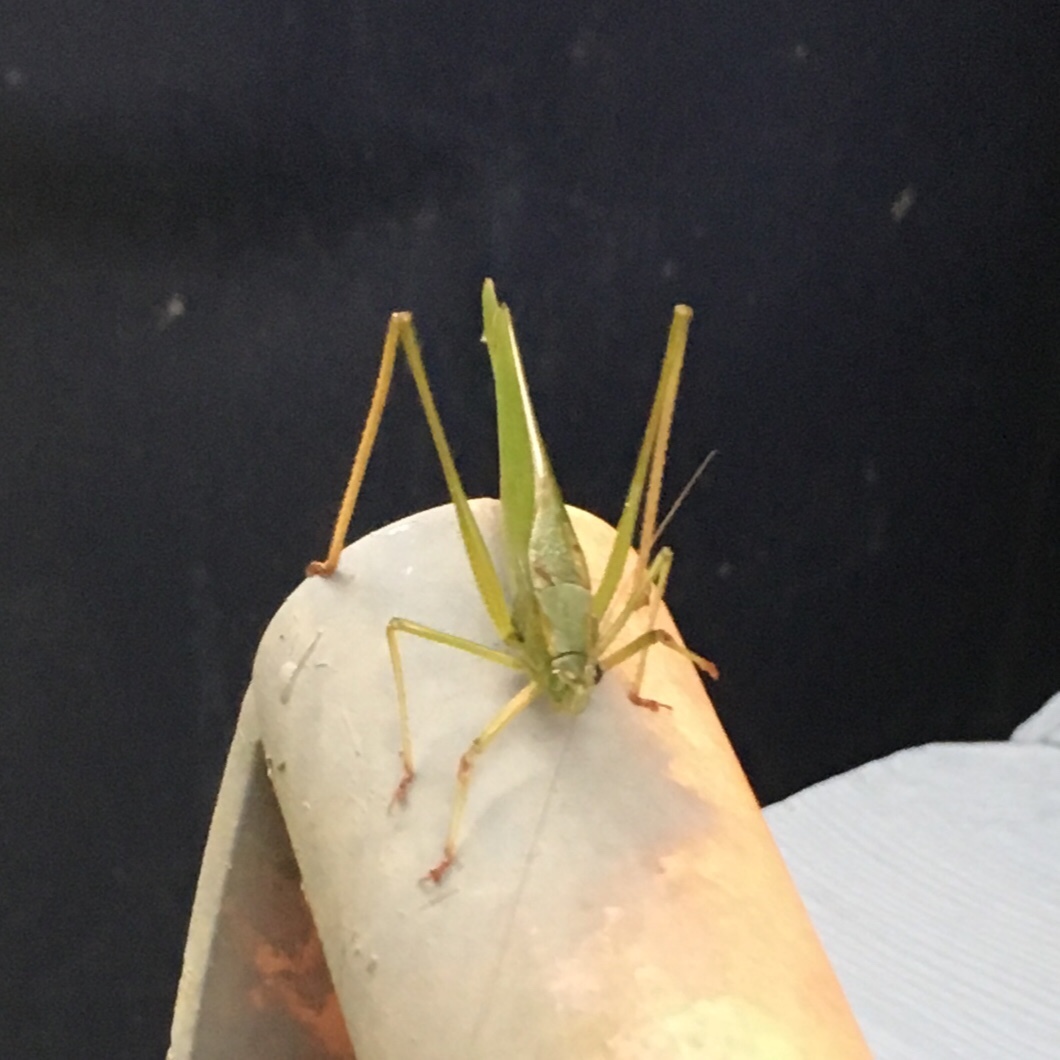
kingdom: Animalia
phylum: Arthropoda
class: Insecta
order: Orthoptera
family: Tettigoniidae
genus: Scudderia
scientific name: Scudderia furcata
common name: Fork-tailed bush katydid
